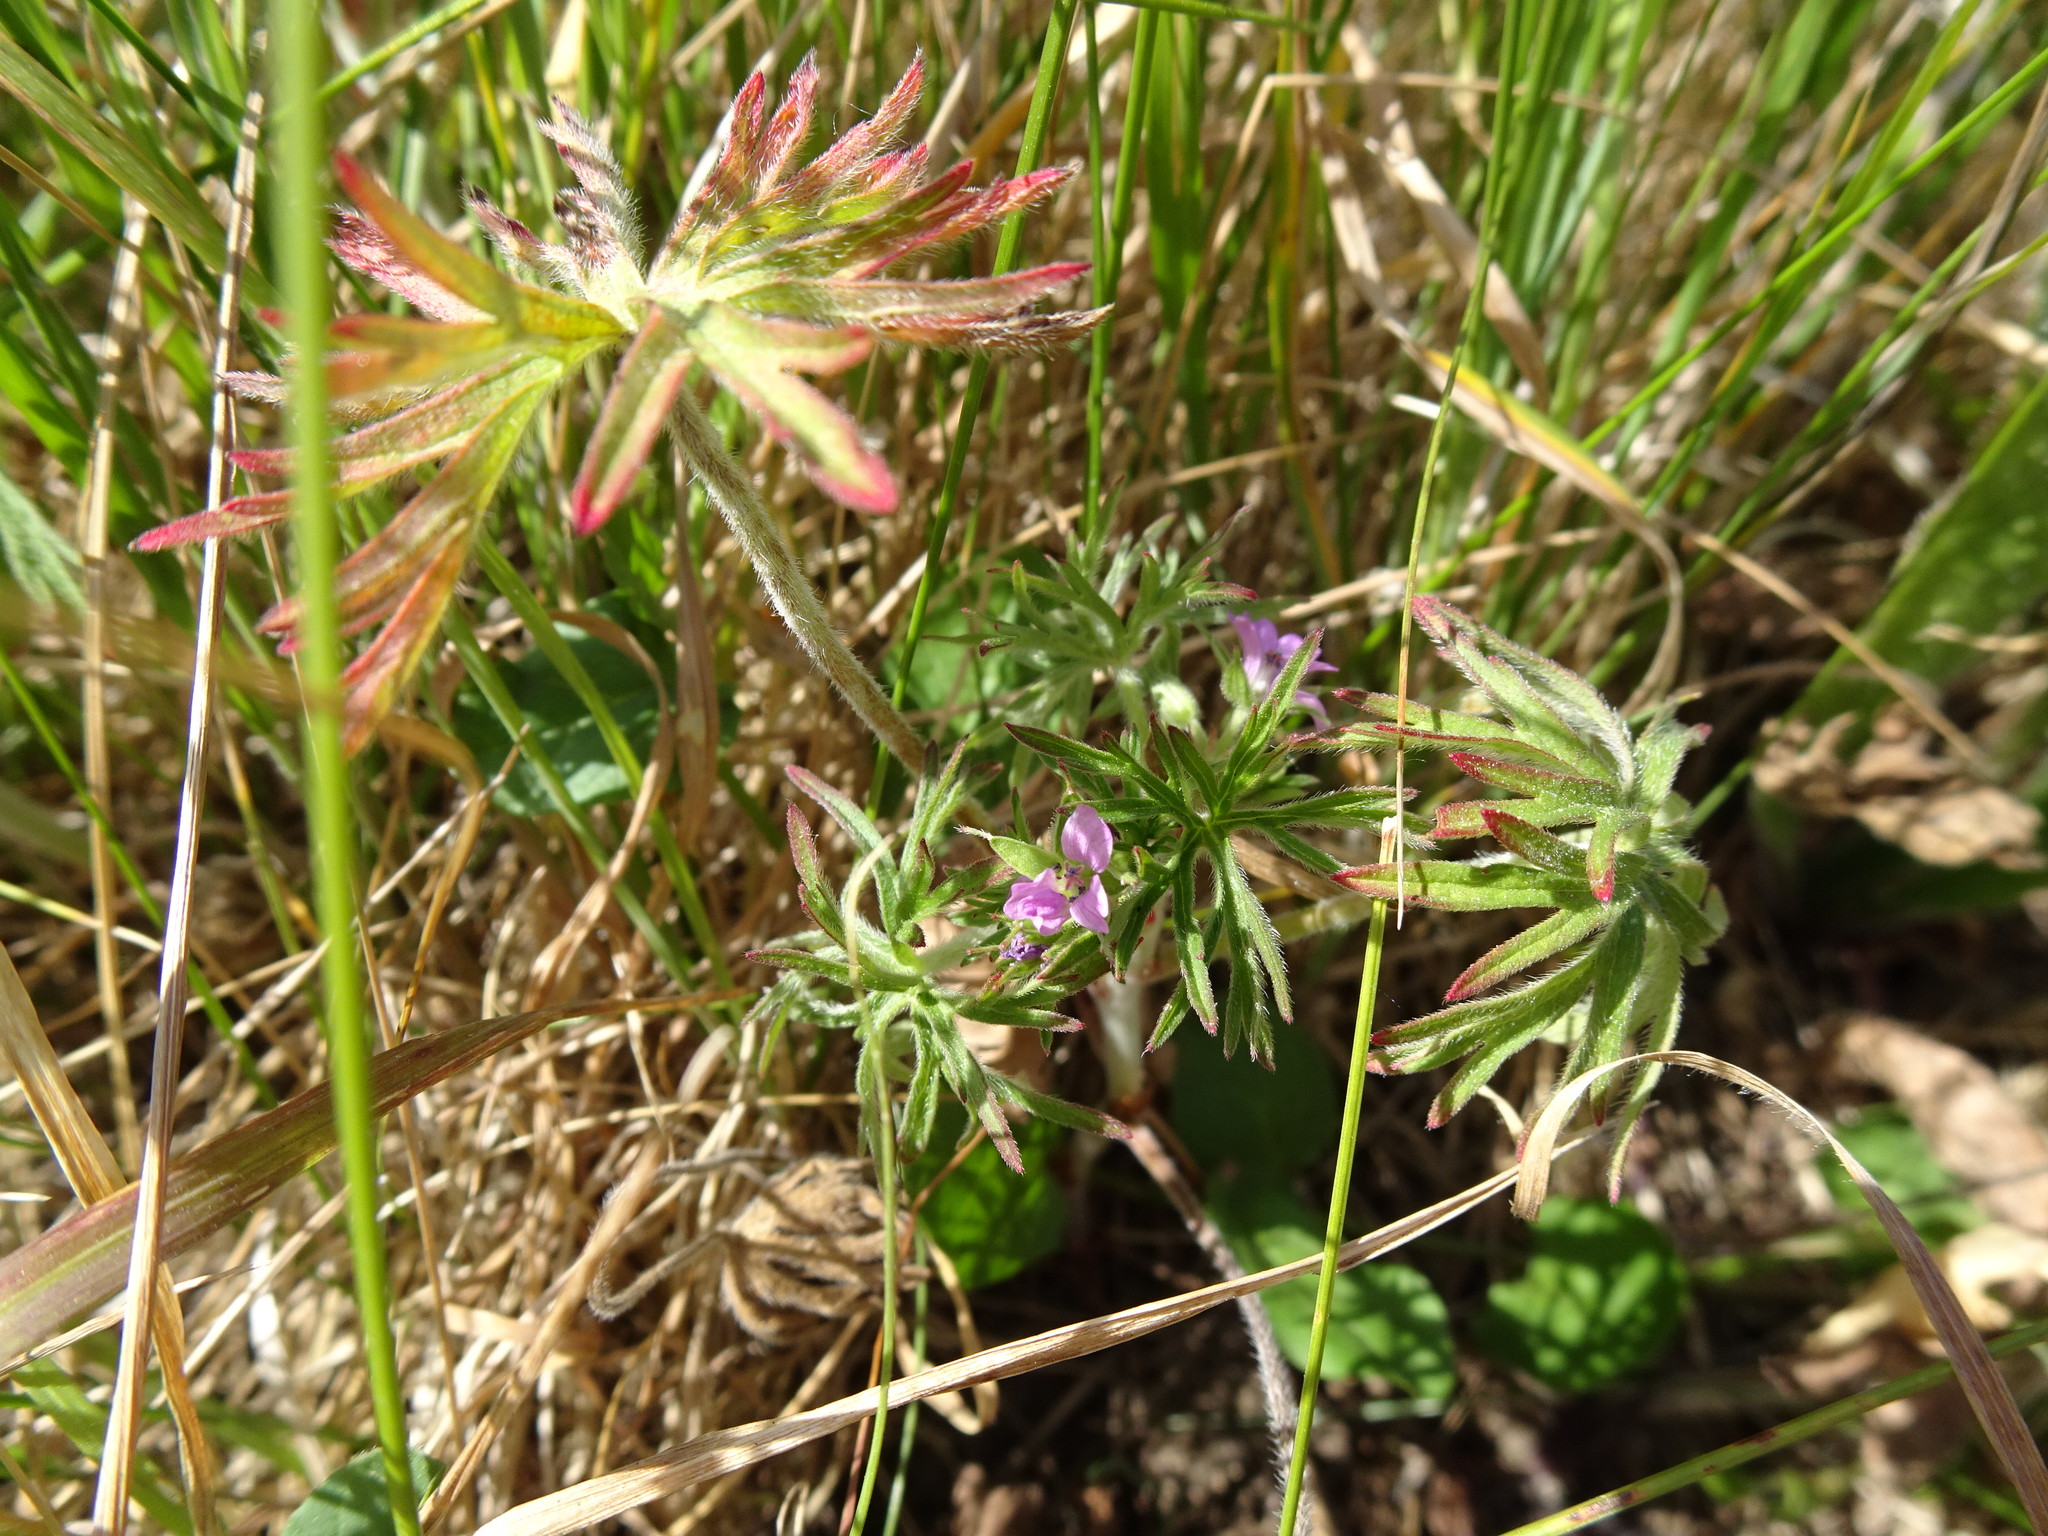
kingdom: Plantae
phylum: Tracheophyta
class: Magnoliopsida
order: Geraniales
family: Geraniaceae
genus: Geranium
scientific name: Geranium dissectum
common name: Cut-leaved crane's-bill
